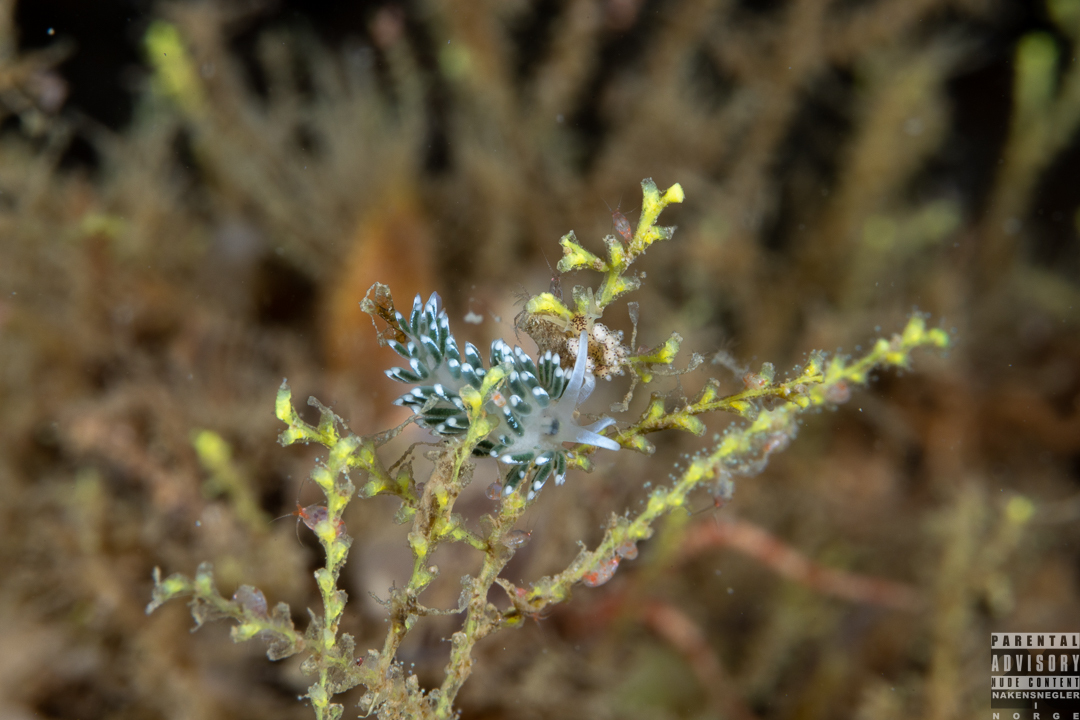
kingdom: Animalia
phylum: Mollusca
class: Gastropoda
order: Nudibranchia
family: Trinchesiidae
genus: Diaphoreolis
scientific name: Diaphoreolis viridis
